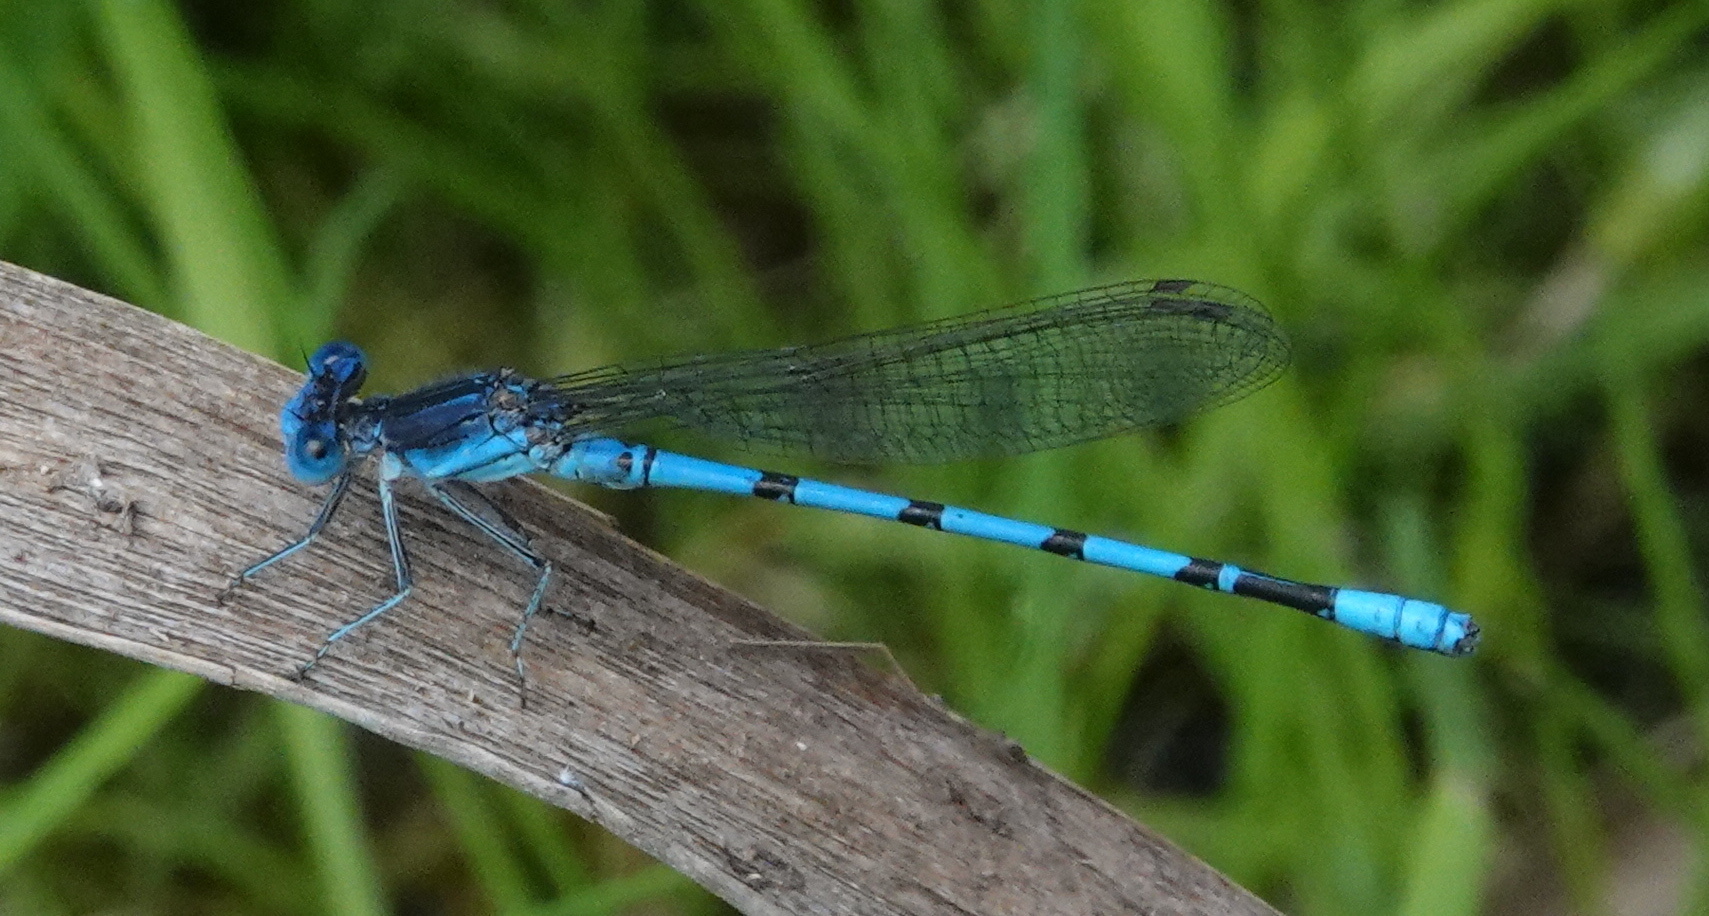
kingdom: Animalia
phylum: Arthropoda
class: Insecta
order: Odonata
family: Coenagrionidae
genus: Argia
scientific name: Argia nahuana
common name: Aztec dancer
